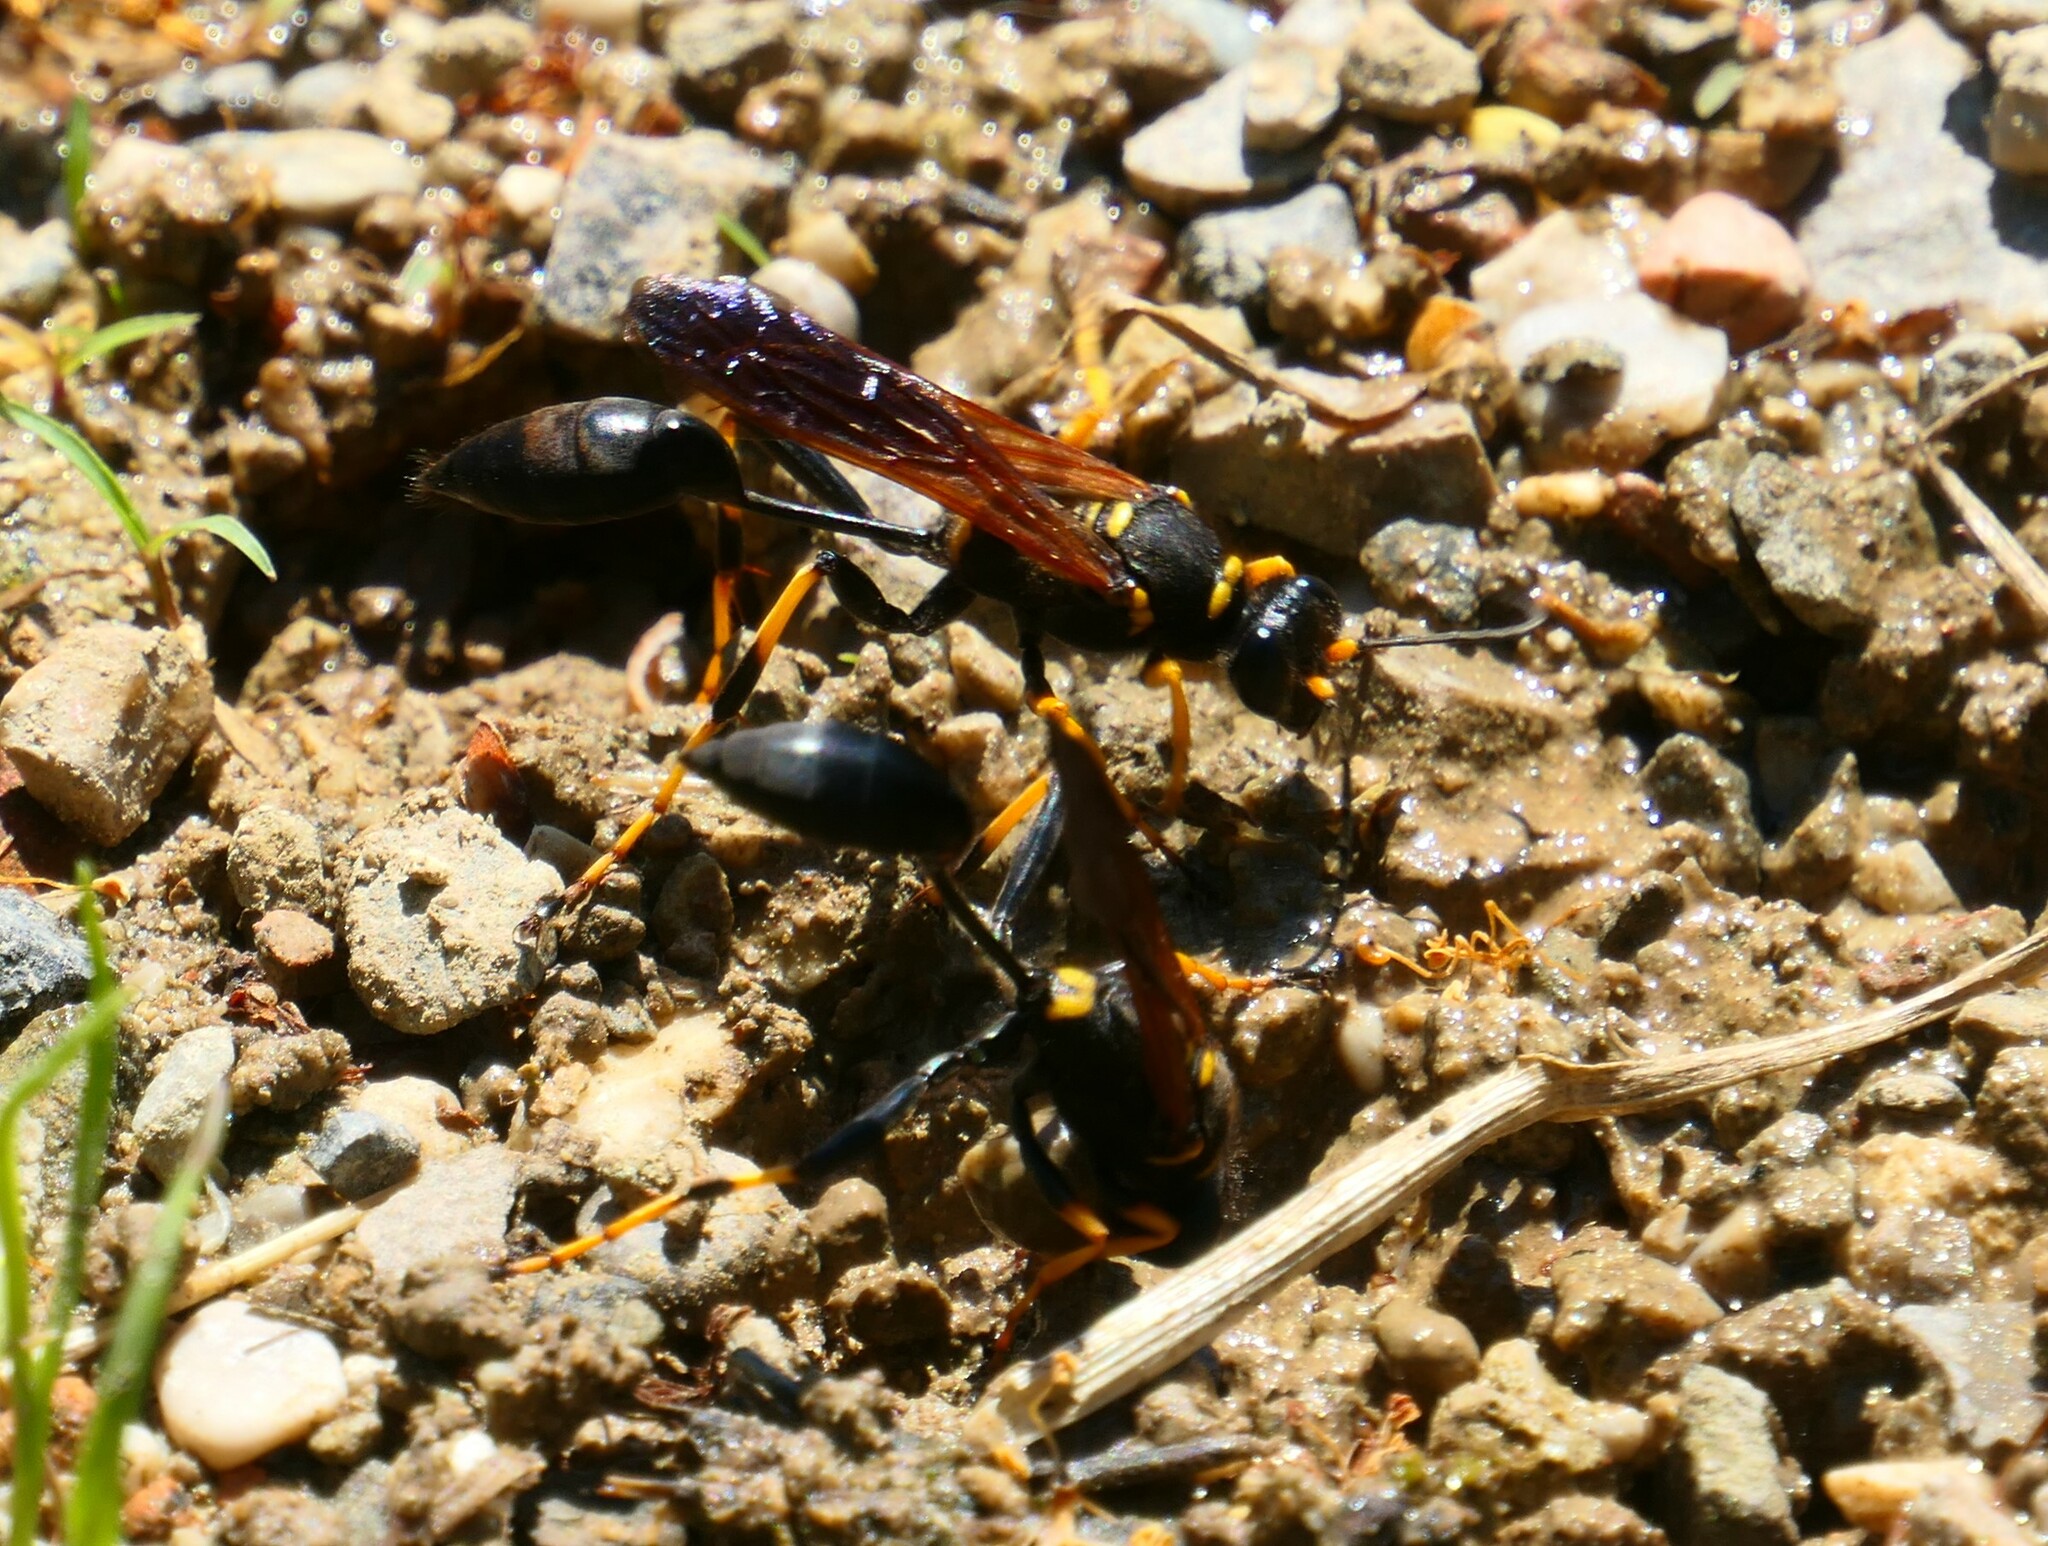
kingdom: Animalia
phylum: Arthropoda
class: Insecta
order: Hymenoptera
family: Sphecidae
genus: Sceliphron
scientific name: Sceliphron caementarium
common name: Mud dauber
